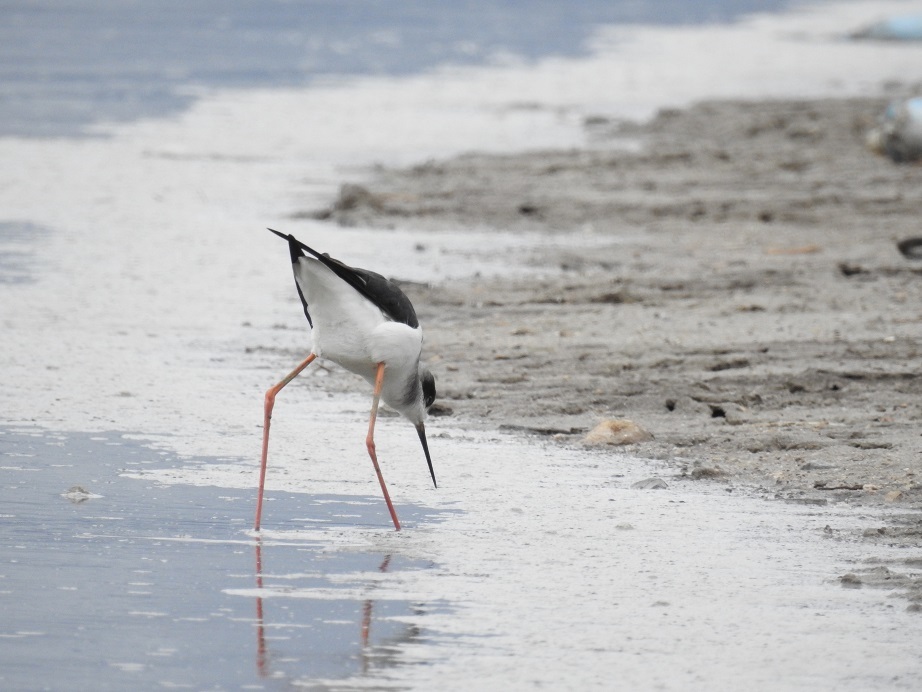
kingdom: Animalia
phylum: Chordata
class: Aves
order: Charadriiformes
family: Recurvirostridae
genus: Himantopus
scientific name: Himantopus himantopus
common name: Black-winged stilt
